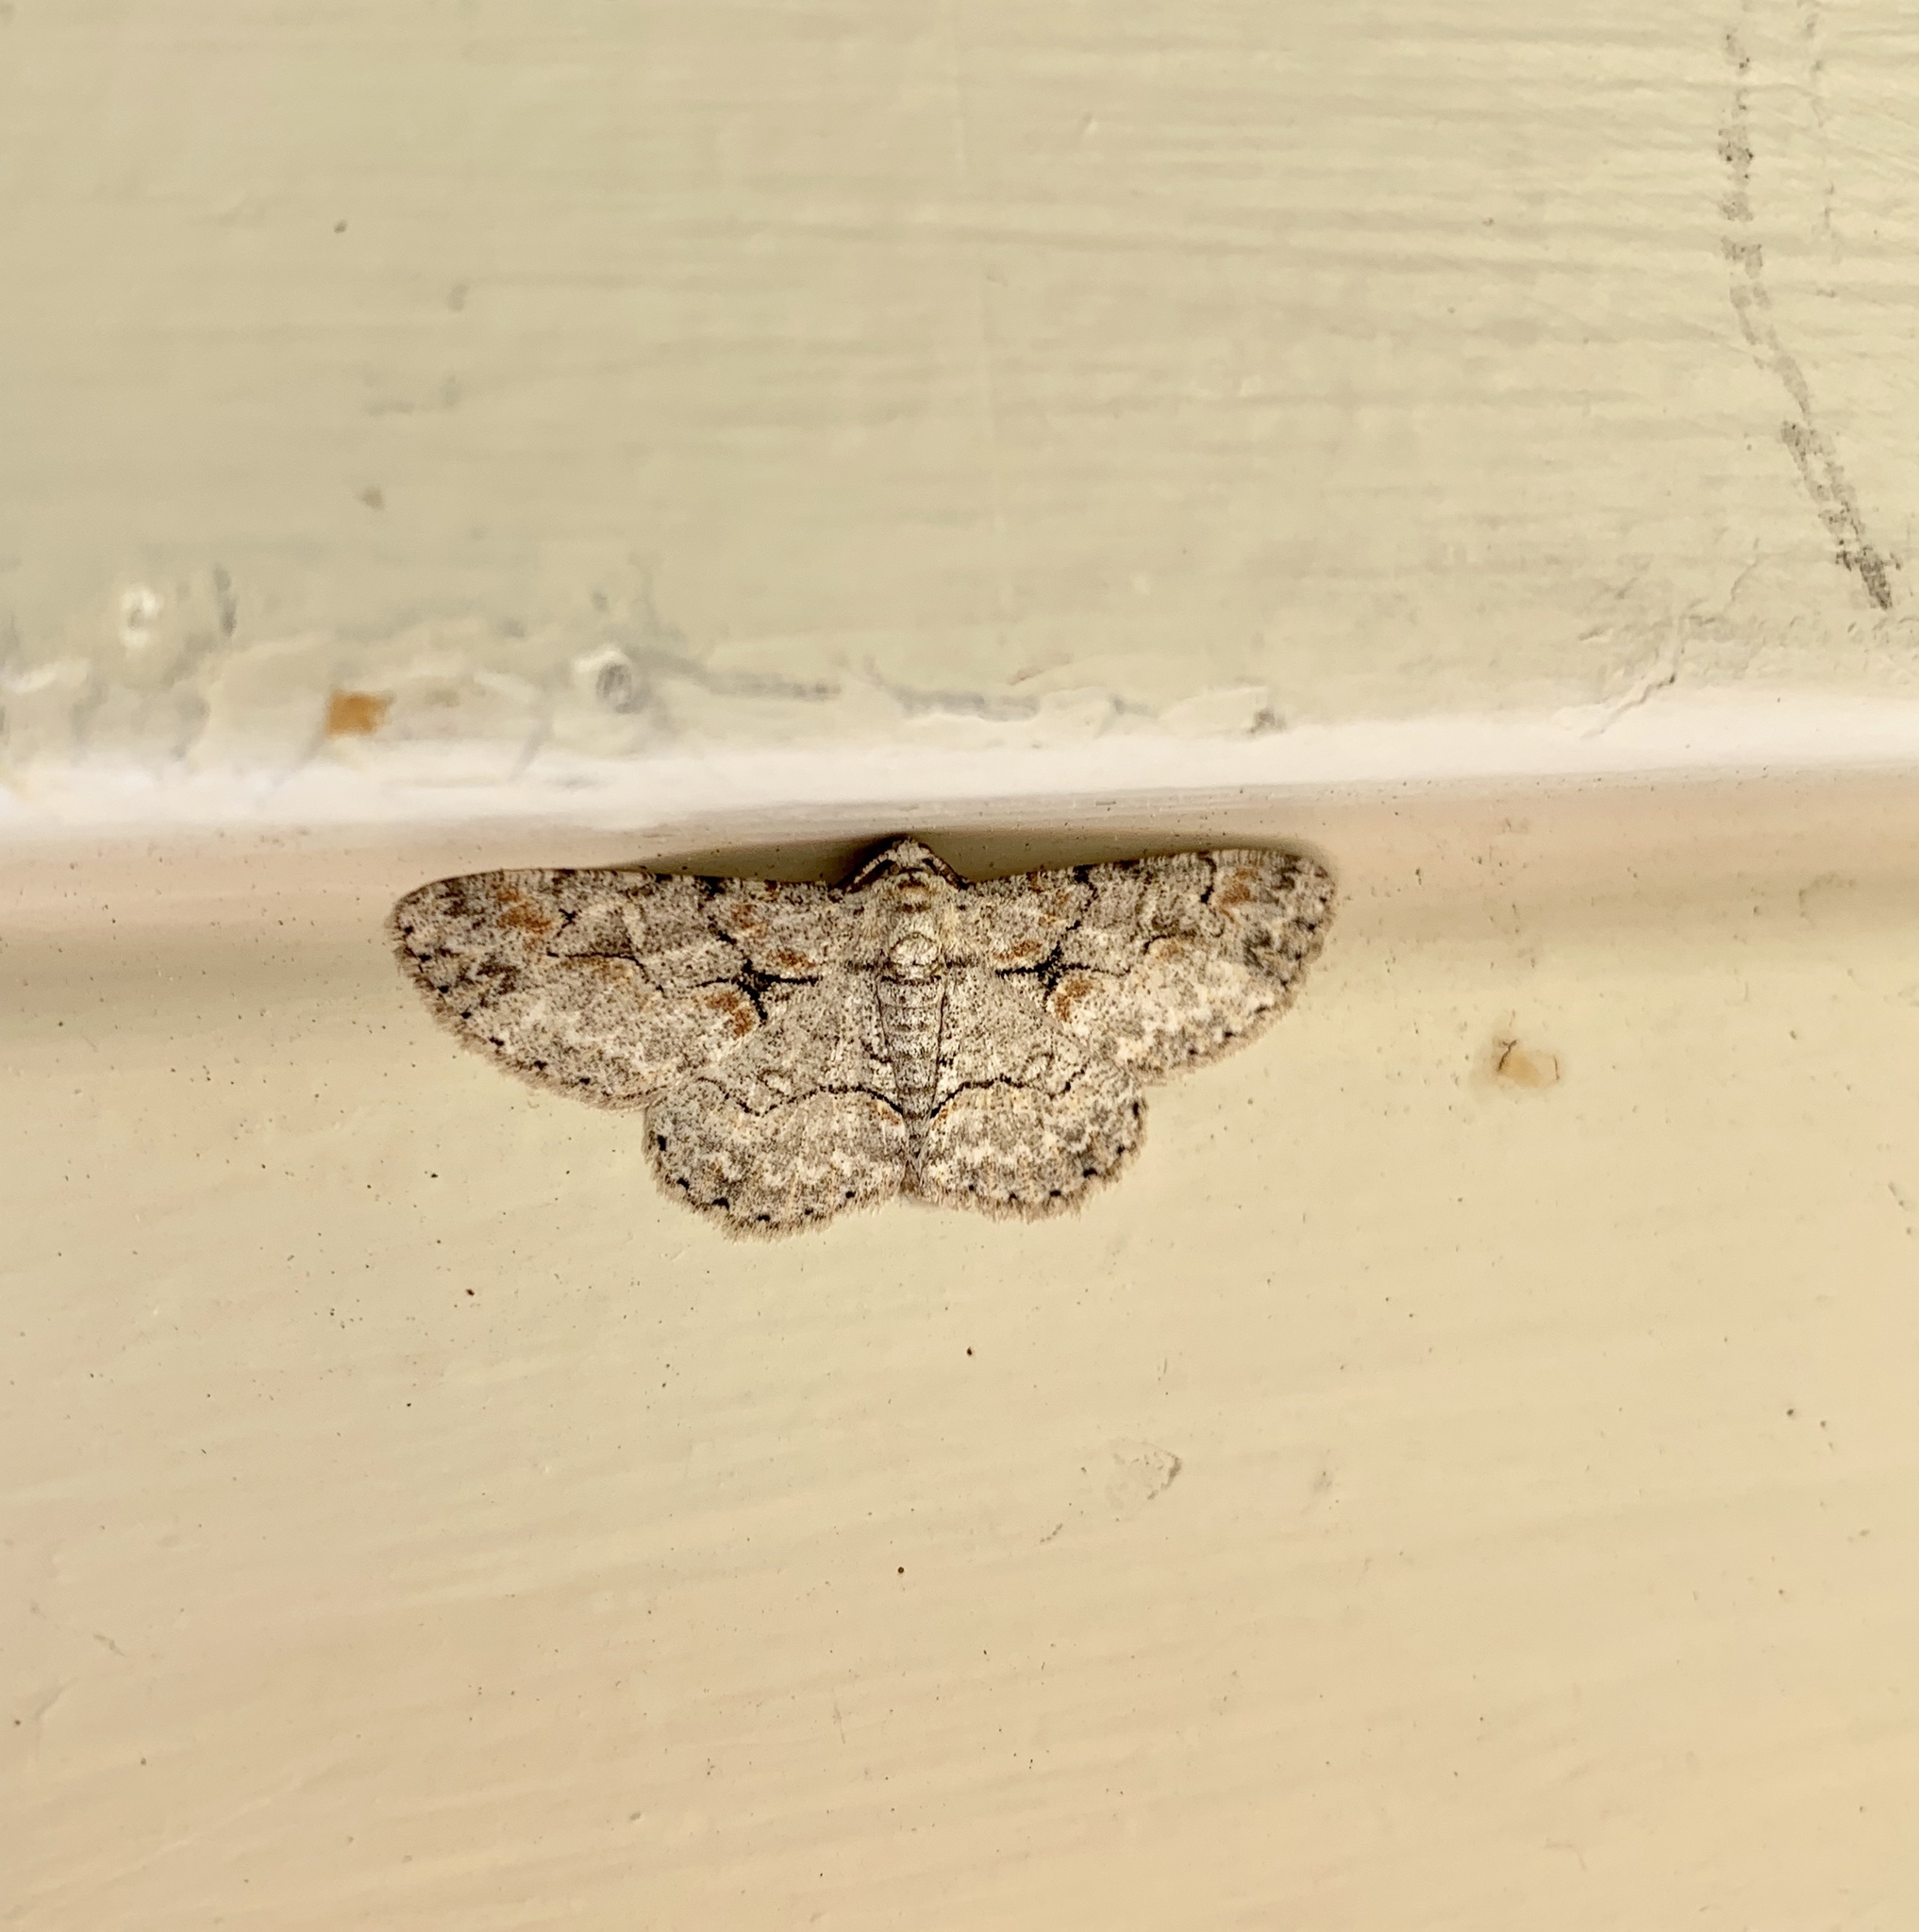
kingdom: Animalia
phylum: Arthropoda
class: Insecta
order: Lepidoptera
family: Geometridae
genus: Iridopsis
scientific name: Iridopsis defectaria
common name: Brown-shaded gray
